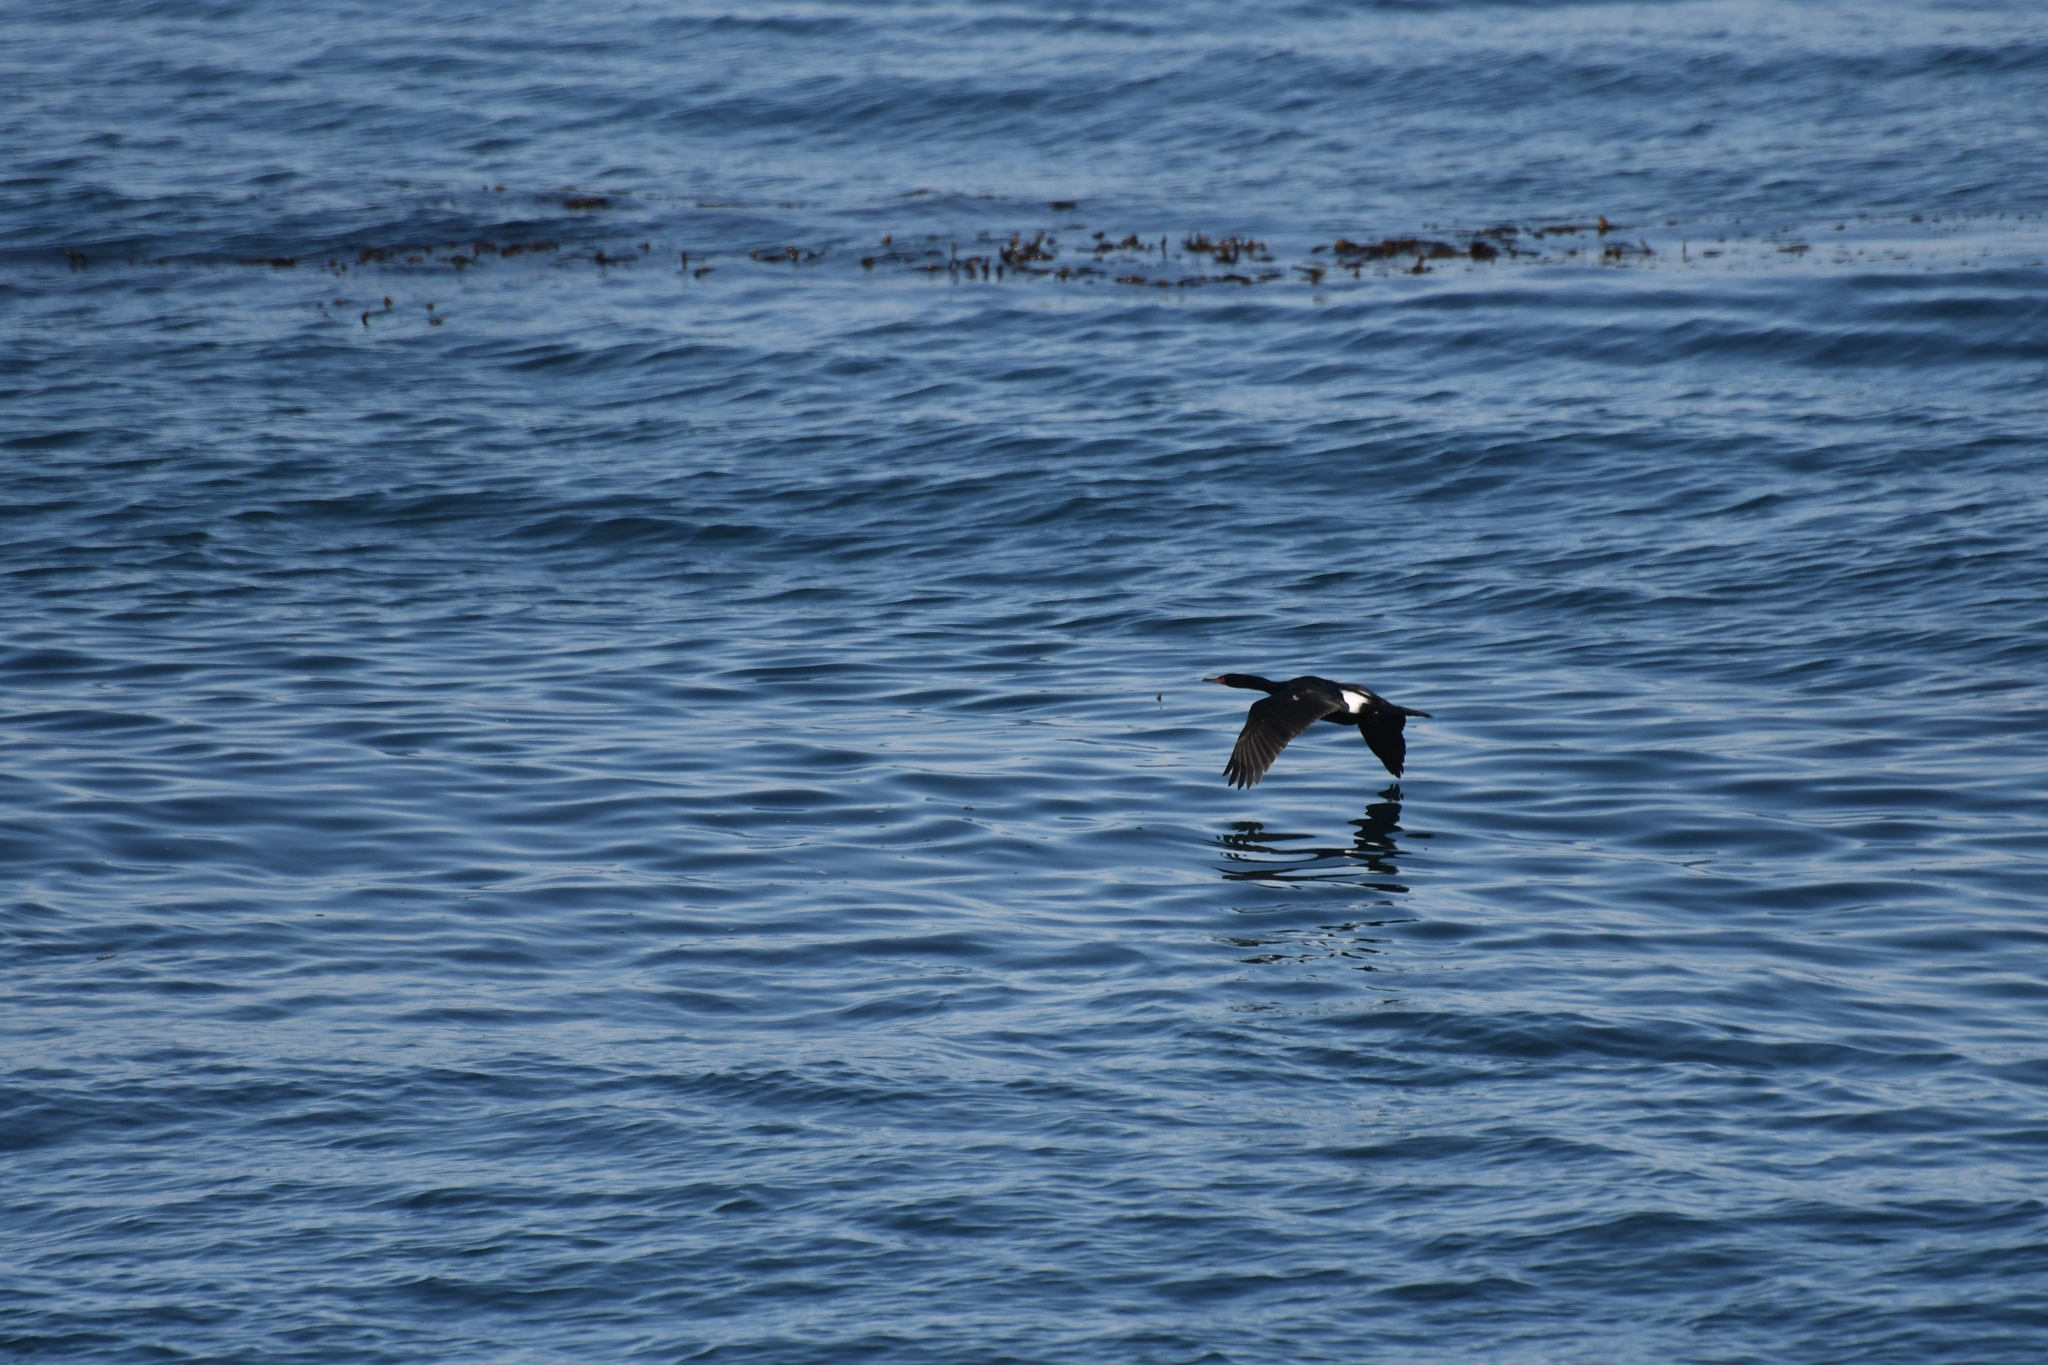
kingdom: Animalia
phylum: Chordata
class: Aves
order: Suliformes
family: Phalacrocoracidae
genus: Phalacrocorax
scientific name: Phalacrocorax pelagicus
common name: Pelagic cormorant
